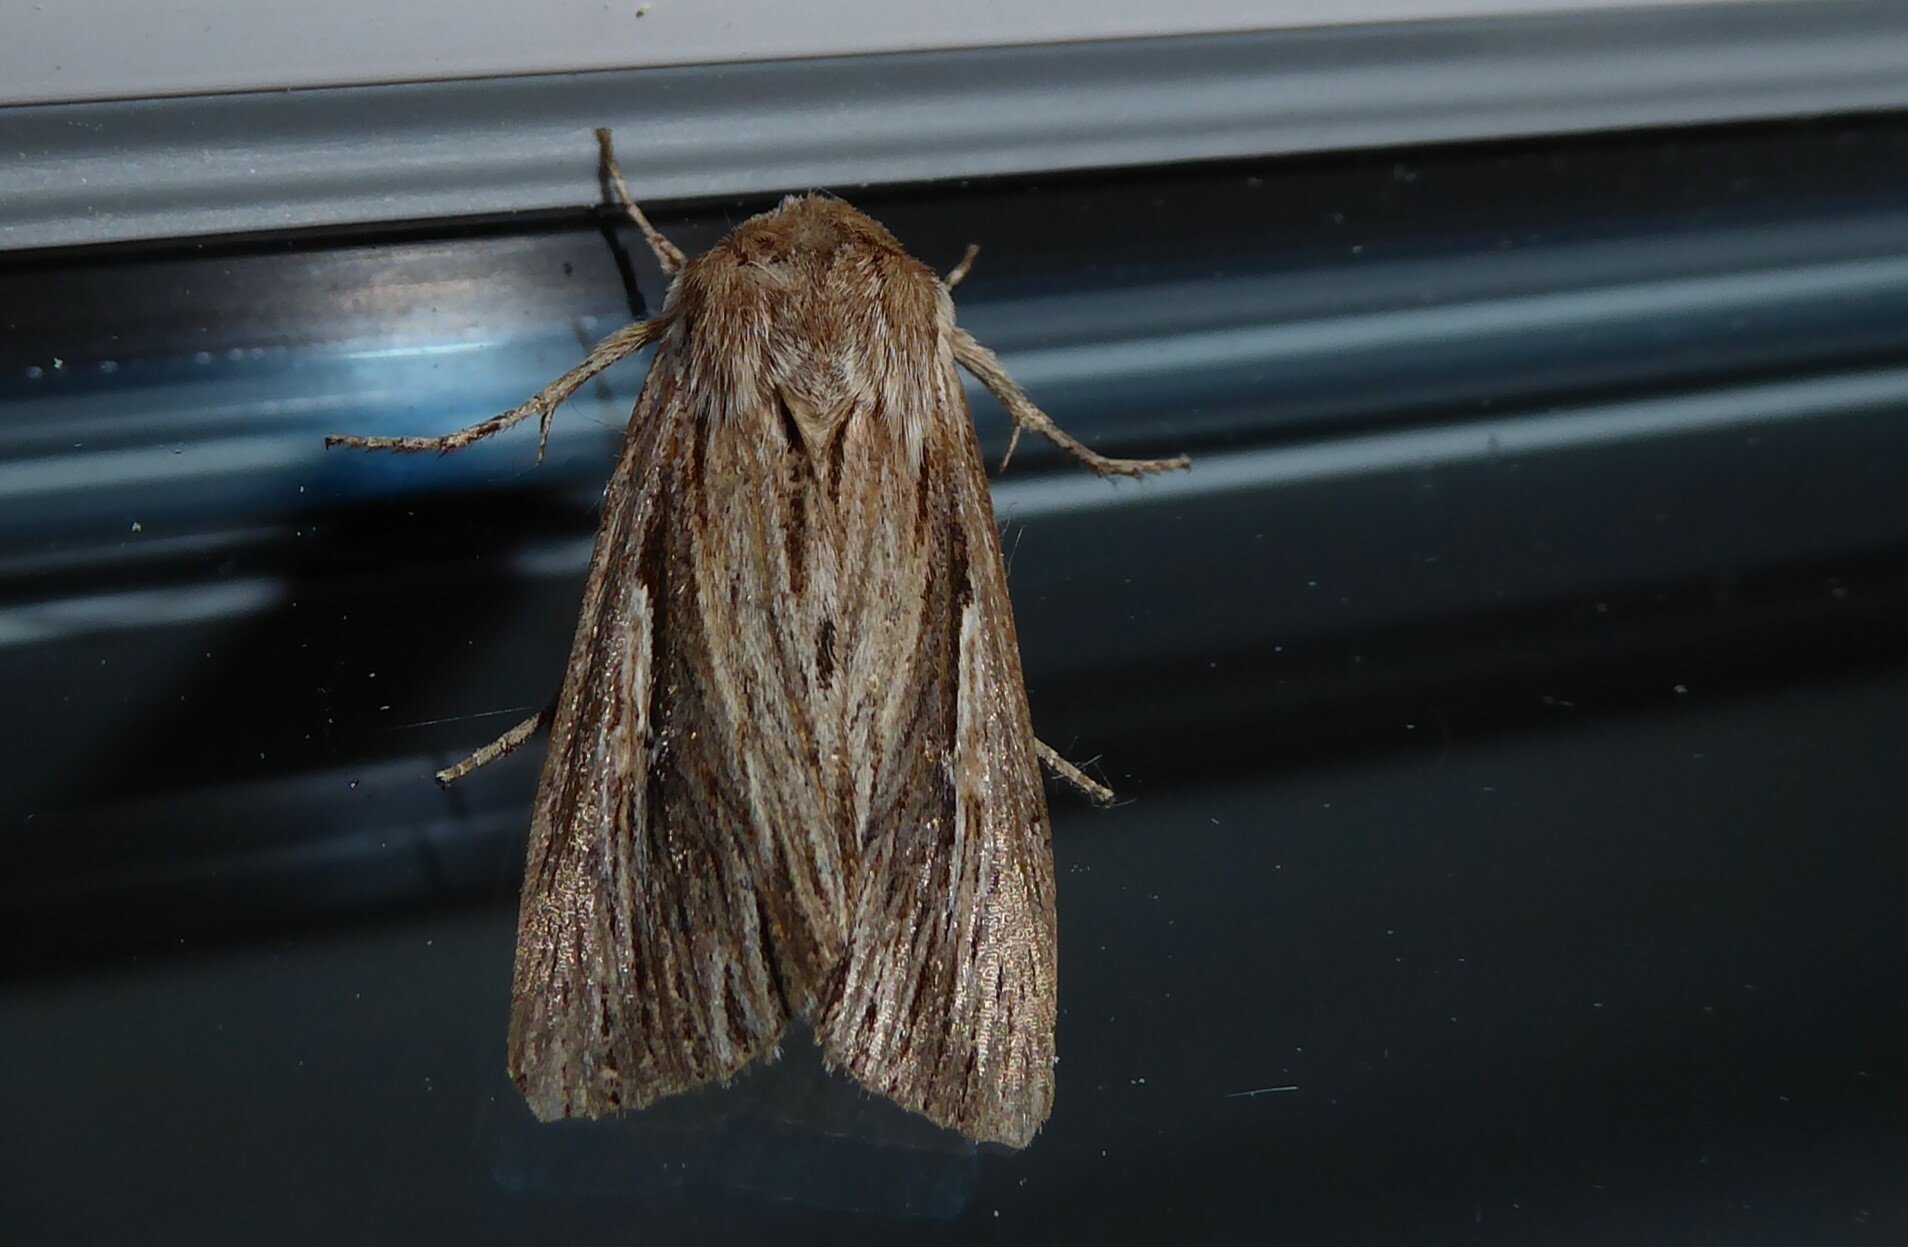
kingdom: Animalia
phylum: Arthropoda
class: Insecta
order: Lepidoptera
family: Noctuidae
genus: Persectania
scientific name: Persectania aversa
